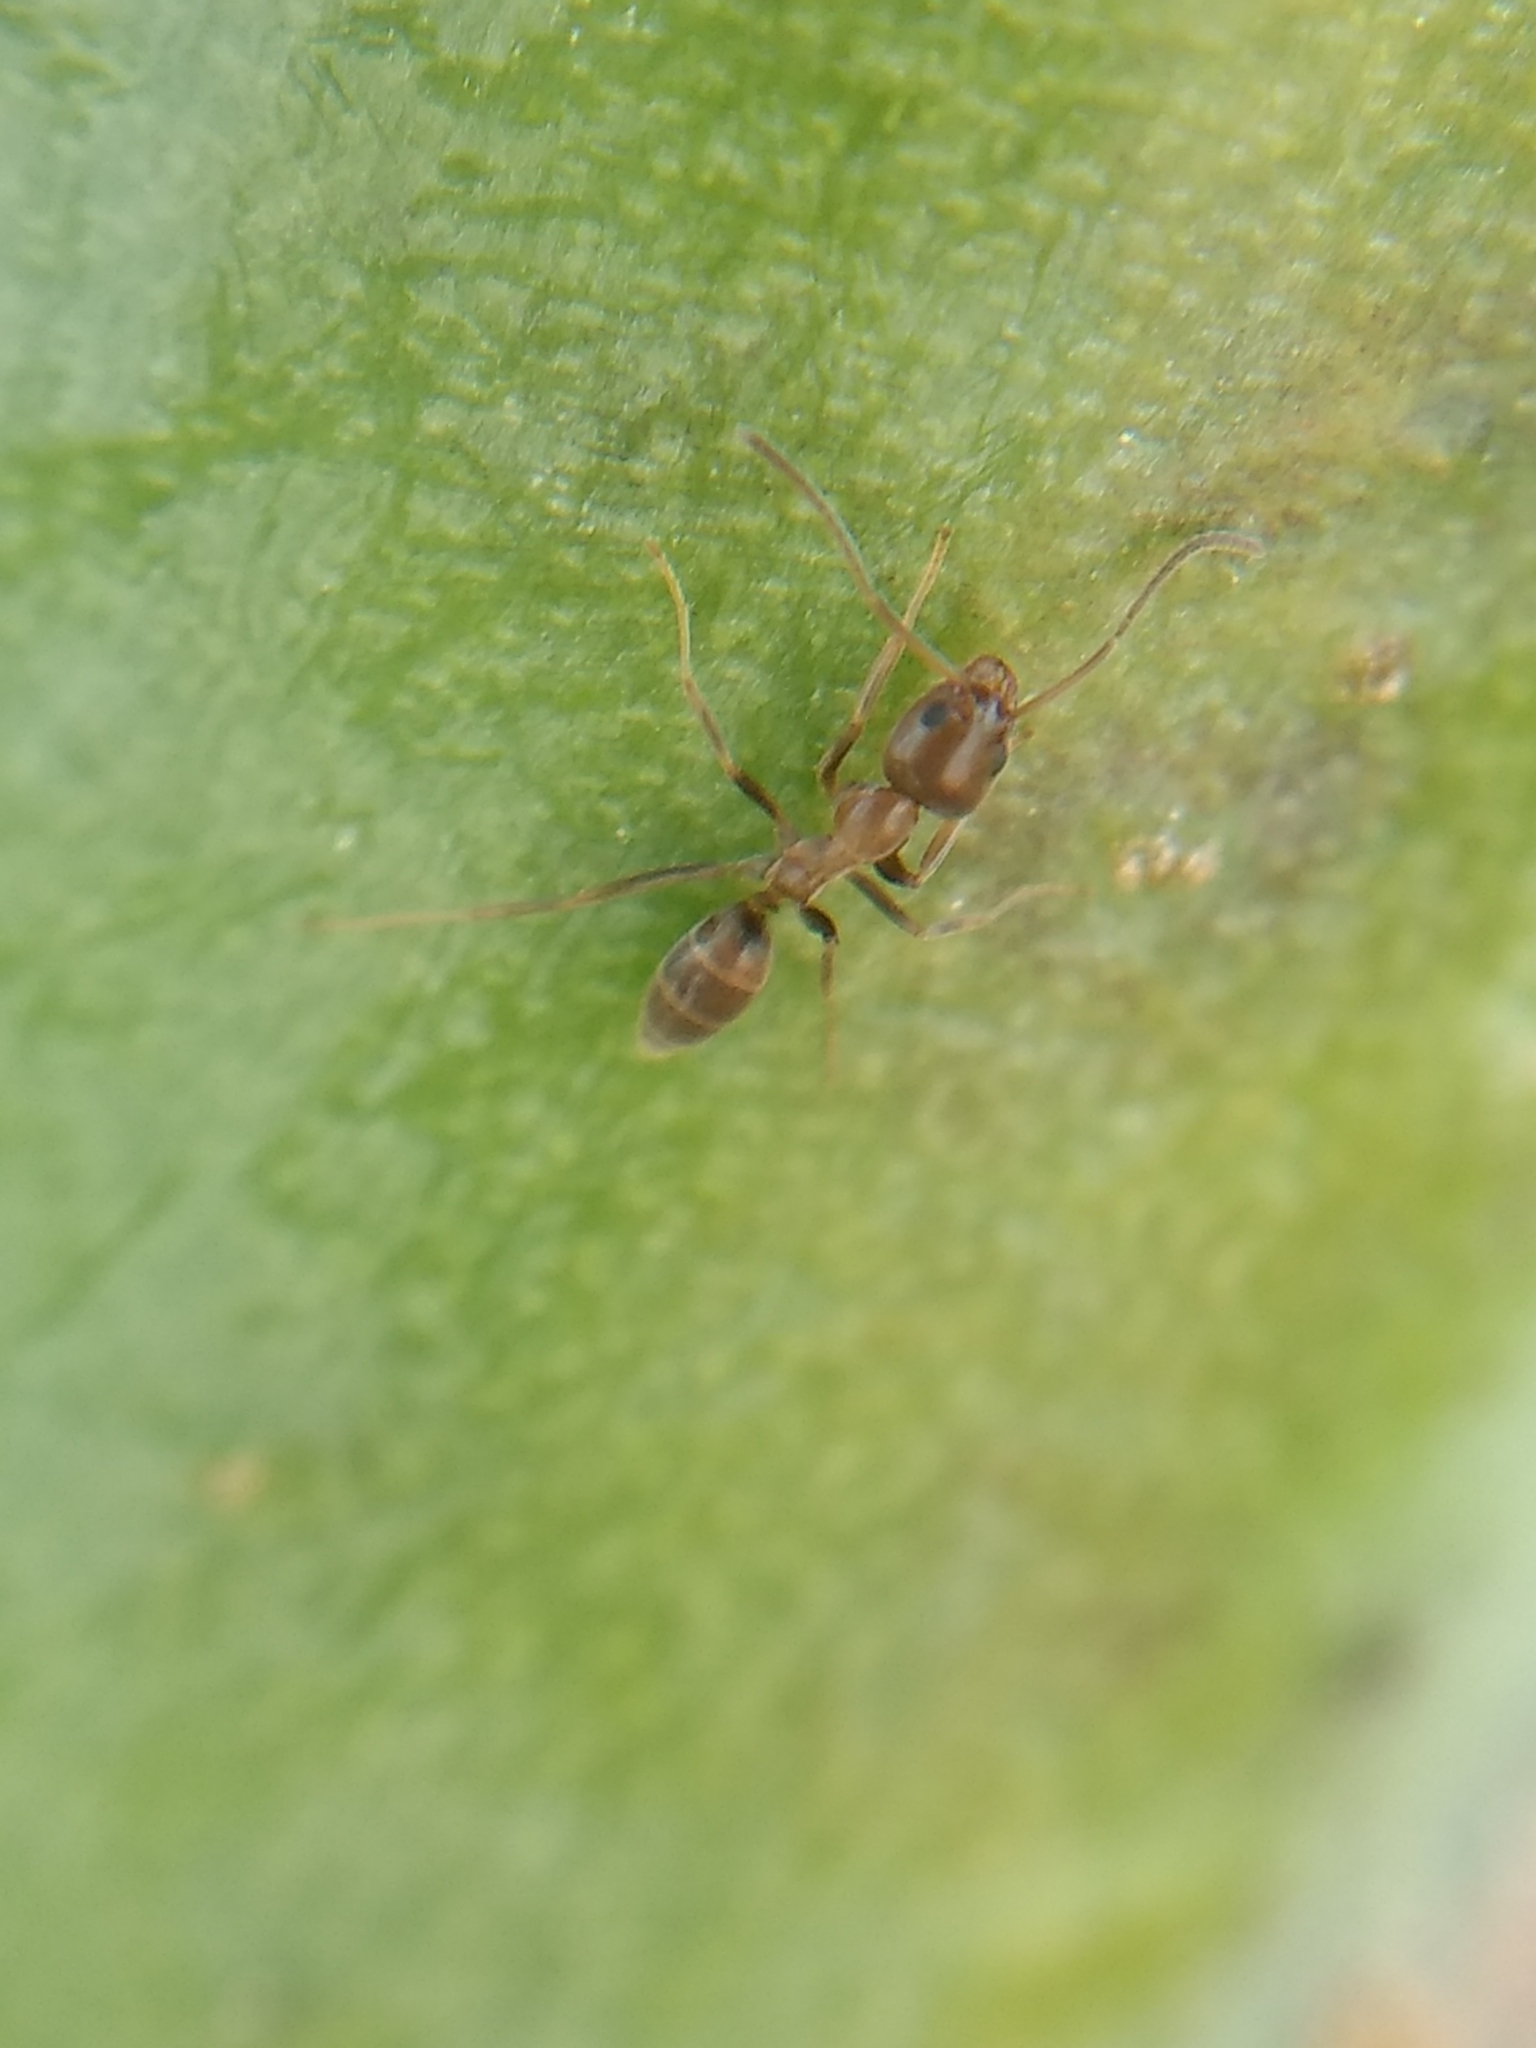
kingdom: Animalia
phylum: Arthropoda
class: Insecta
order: Hymenoptera
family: Formicidae
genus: Linepithema
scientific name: Linepithema humile
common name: Argentine ant
